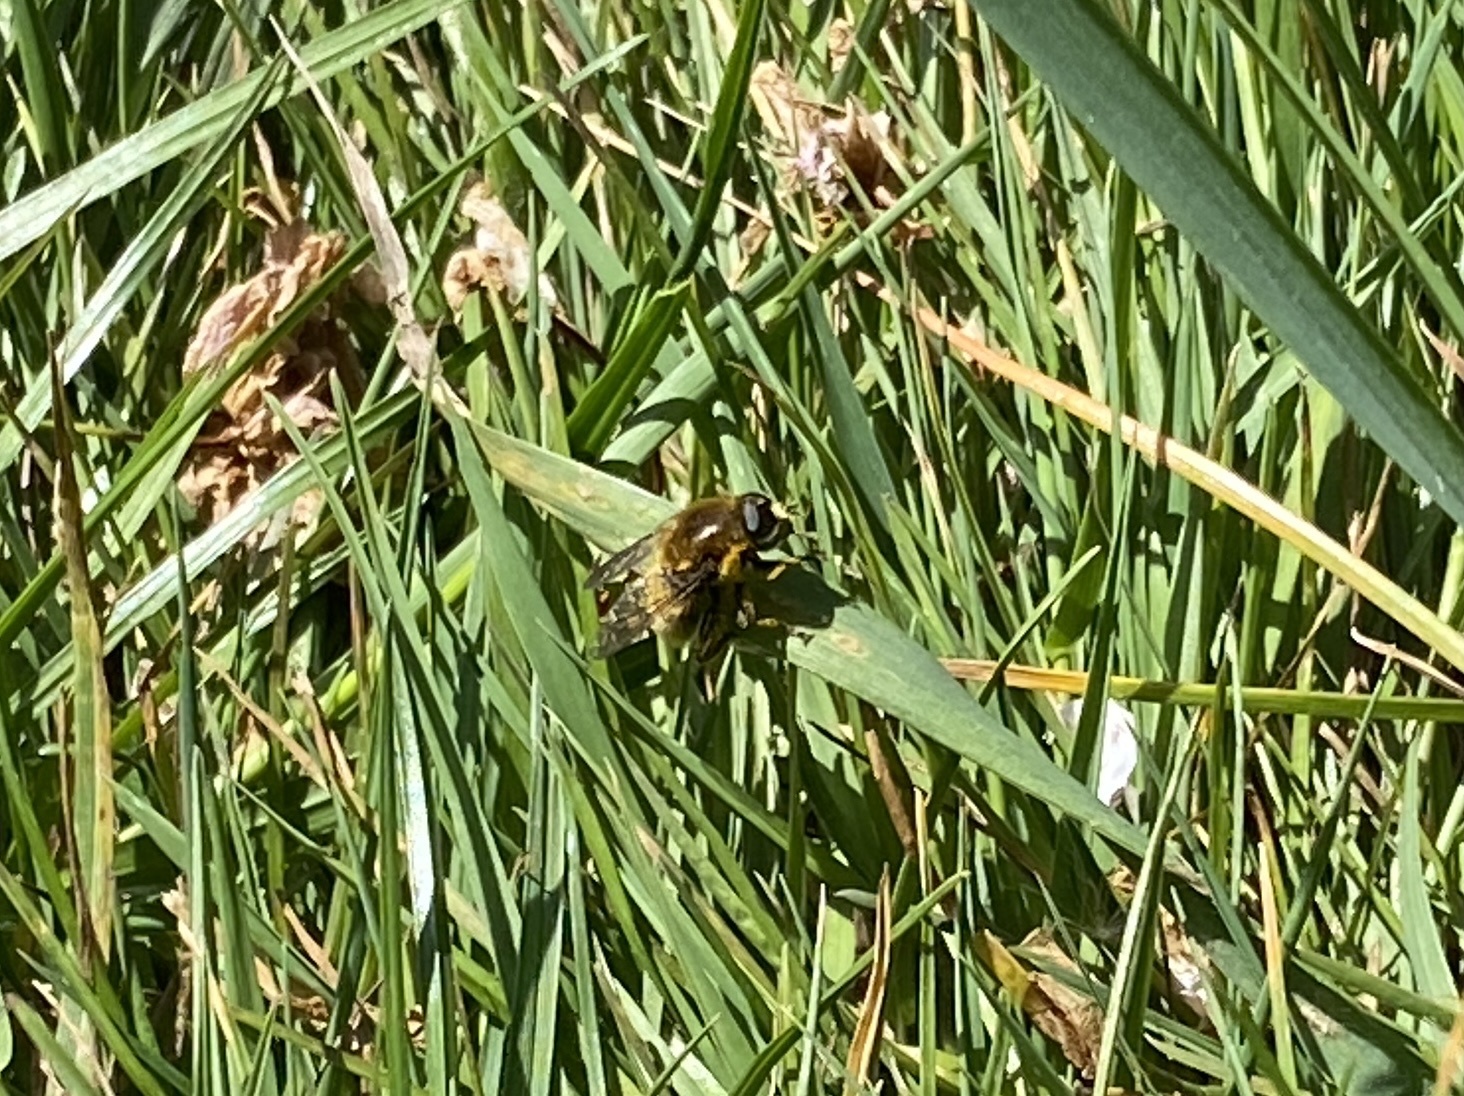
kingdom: Animalia
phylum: Arthropoda
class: Insecta
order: Diptera
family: Syrphidae
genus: Merodon
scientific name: Merodon equestris
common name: Greater bulb-fly
